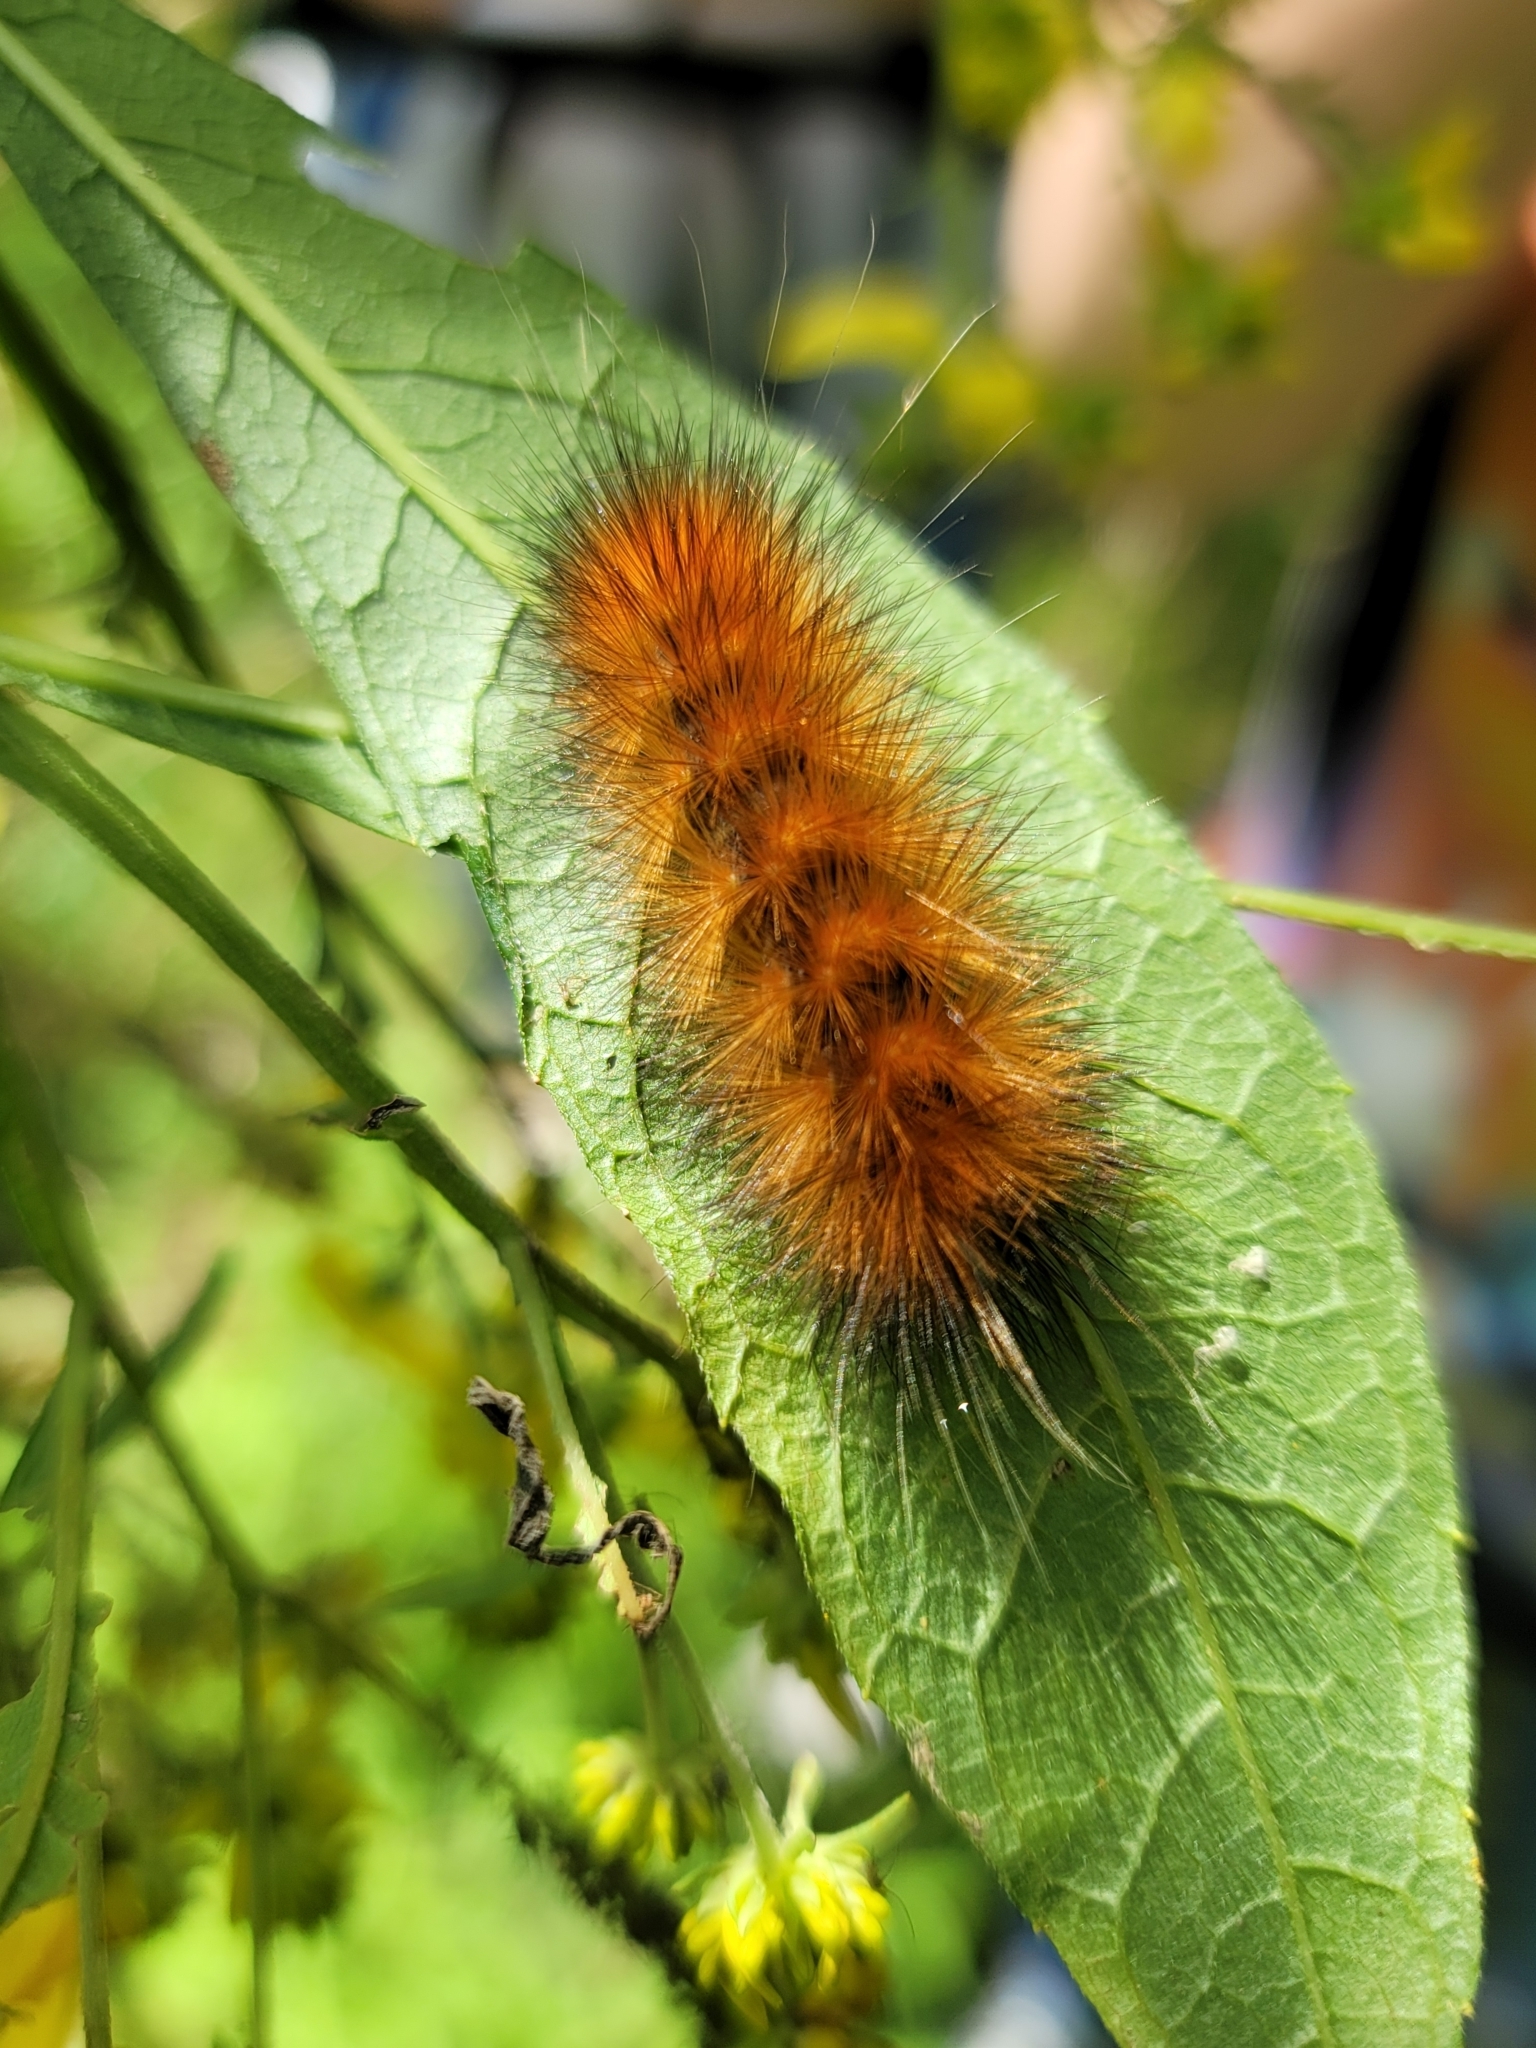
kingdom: Animalia
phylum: Arthropoda
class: Insecta
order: Lepidoptera
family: Erebidae
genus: Spilosoma
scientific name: Spilosoma virginica
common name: Virginia tiger moth
